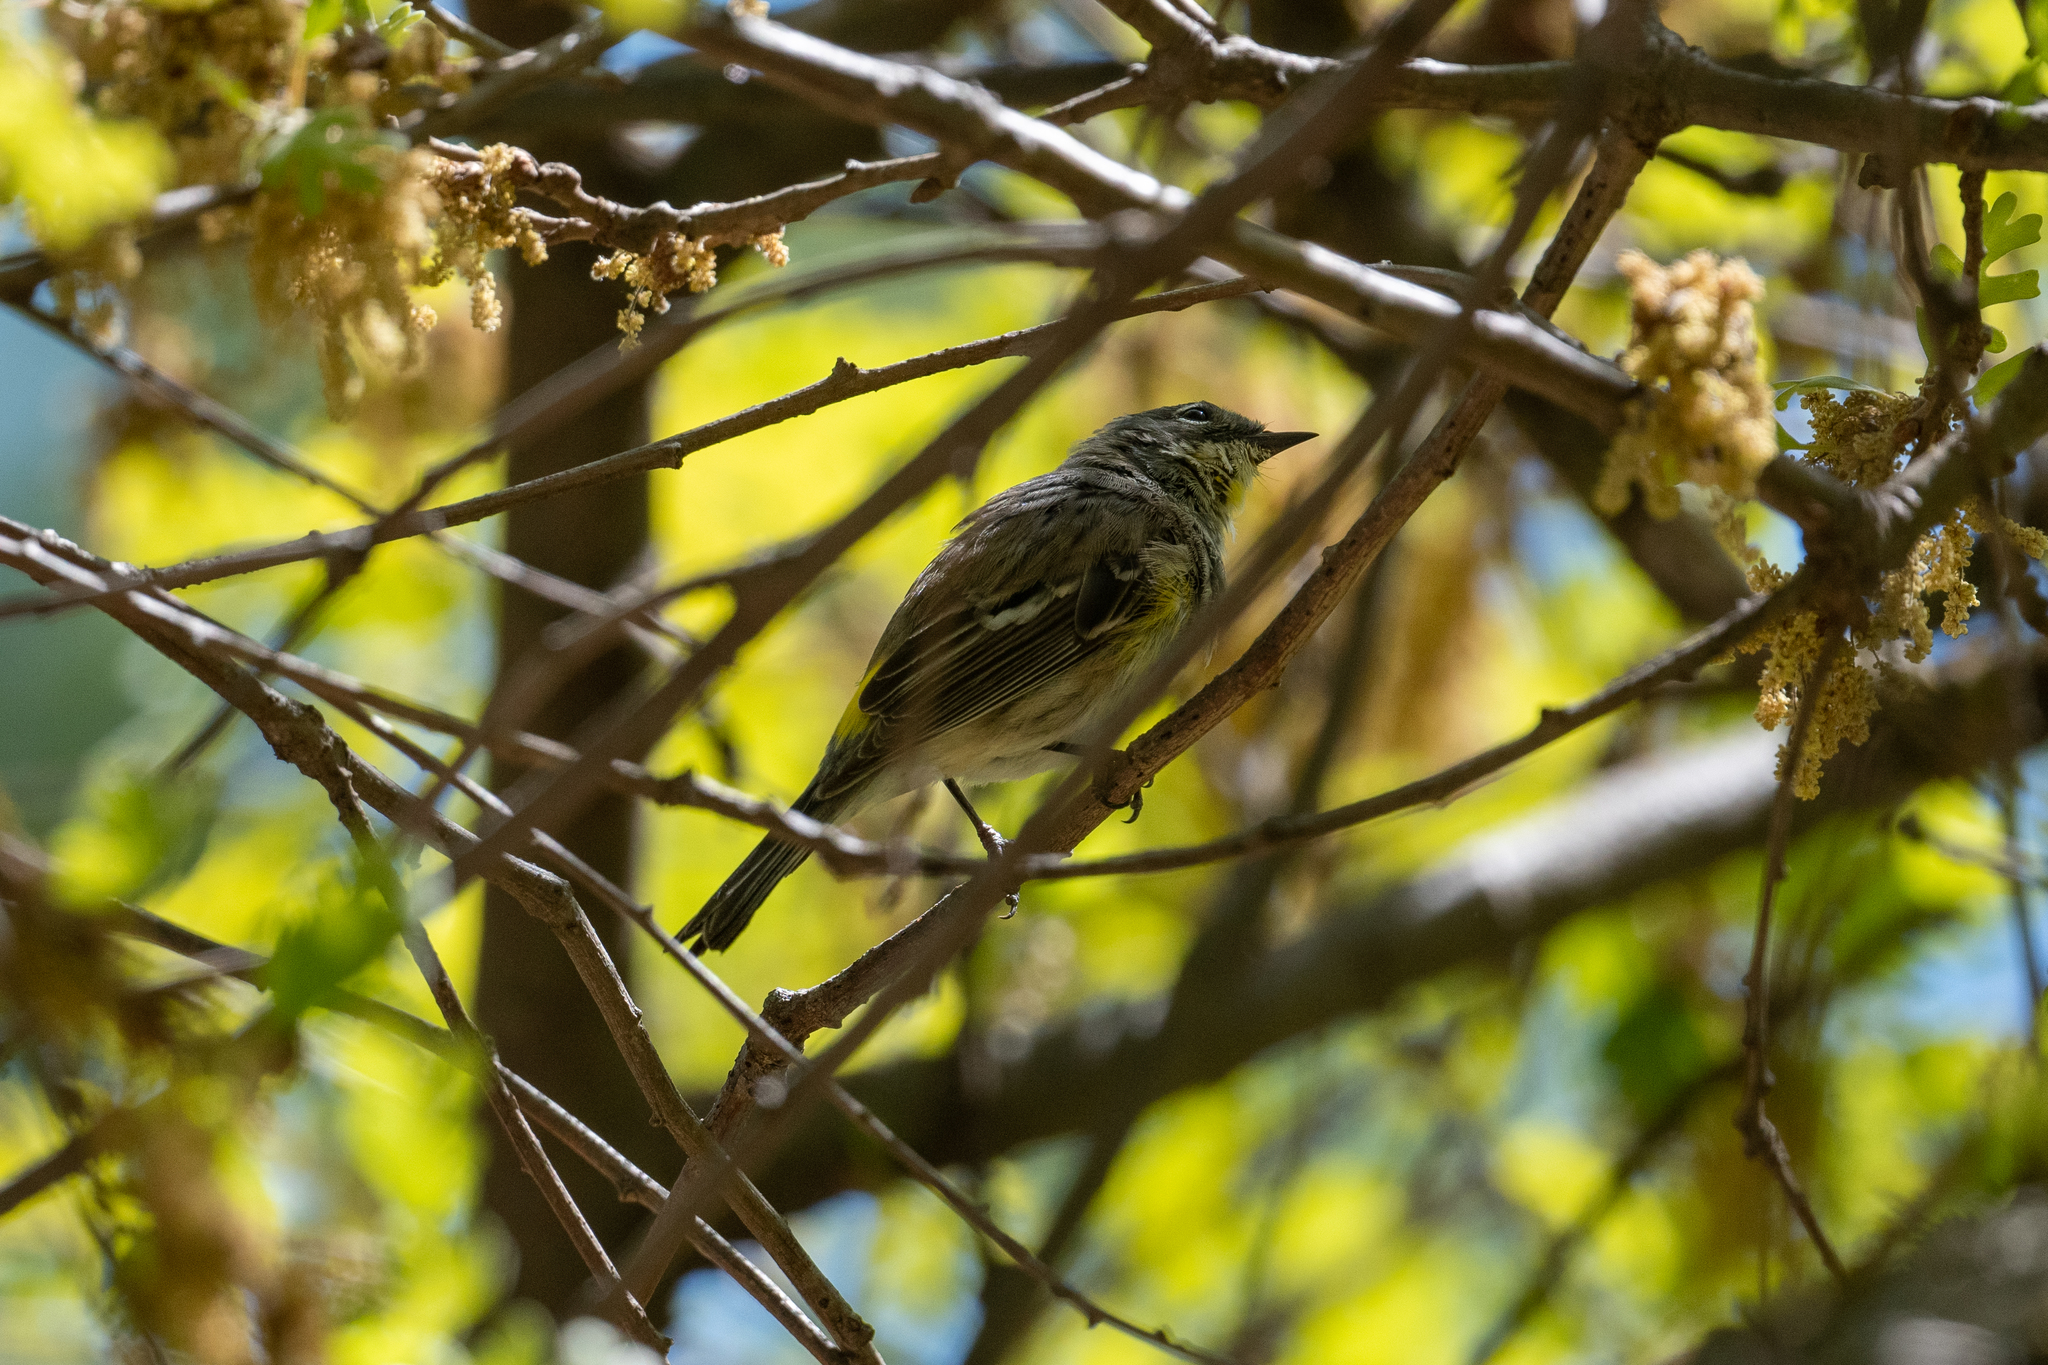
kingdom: Animalia
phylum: Chordata
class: Aves
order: Passeriformes
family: Parulidae
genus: Setophaga
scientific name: Setophaga coronata
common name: Myrtle warbler
